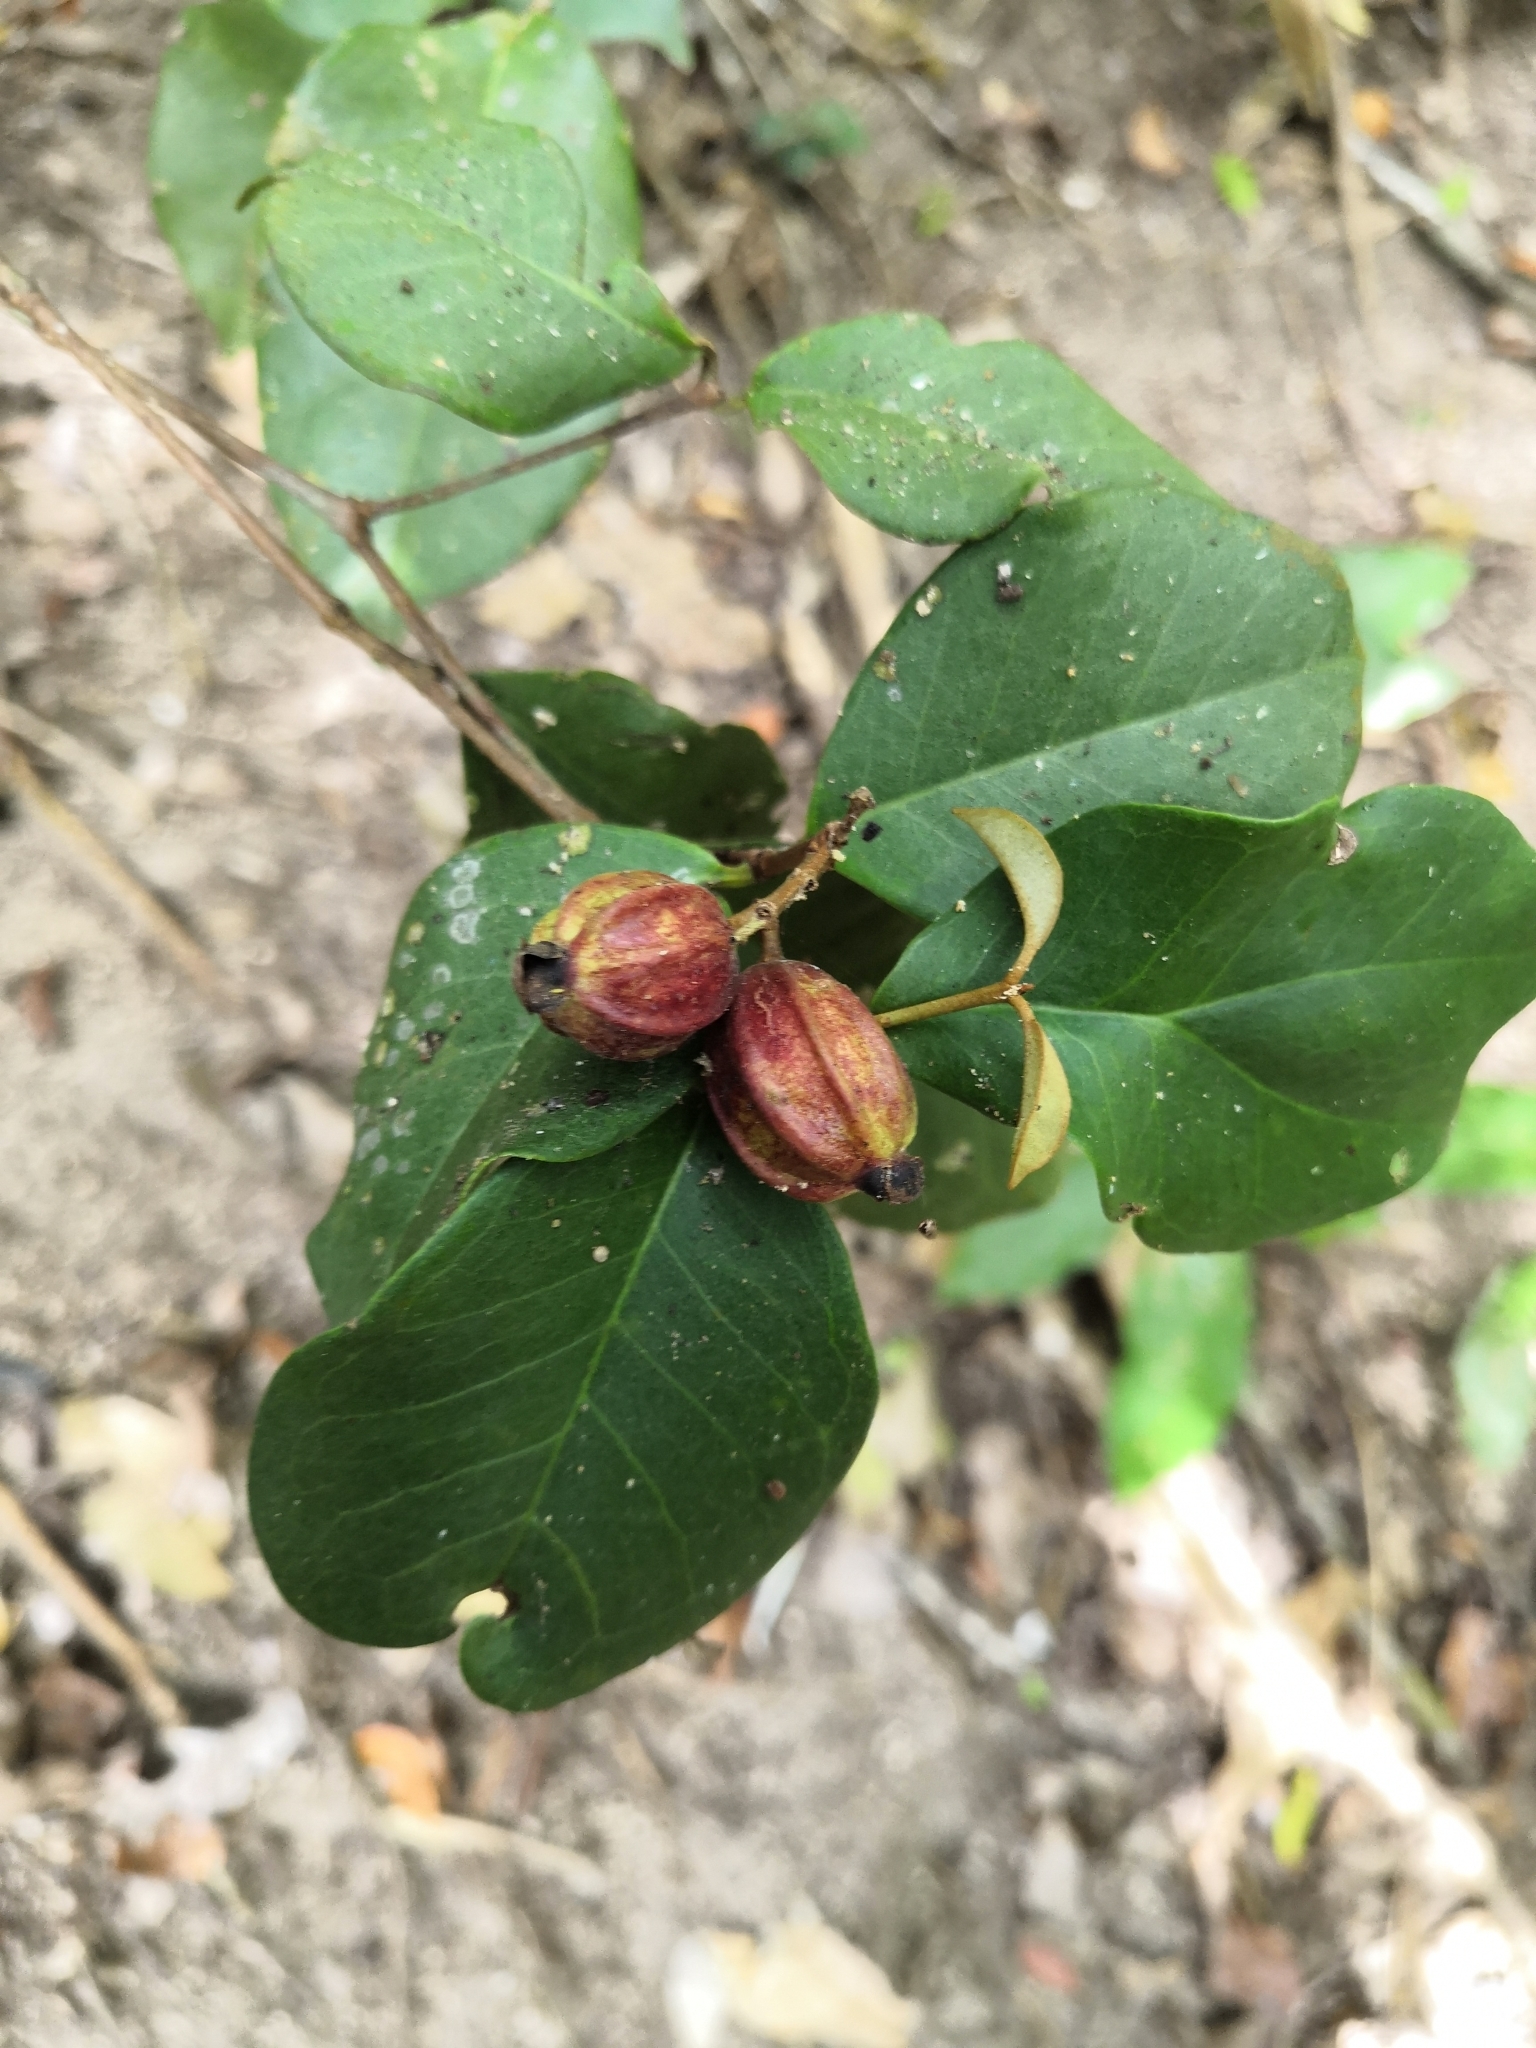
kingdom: Plantae
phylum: Tracheophyta
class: Magnoliopsida
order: Myrtales
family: Myrtaceae
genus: Eugenia
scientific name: Eugenia pleurocarpa
